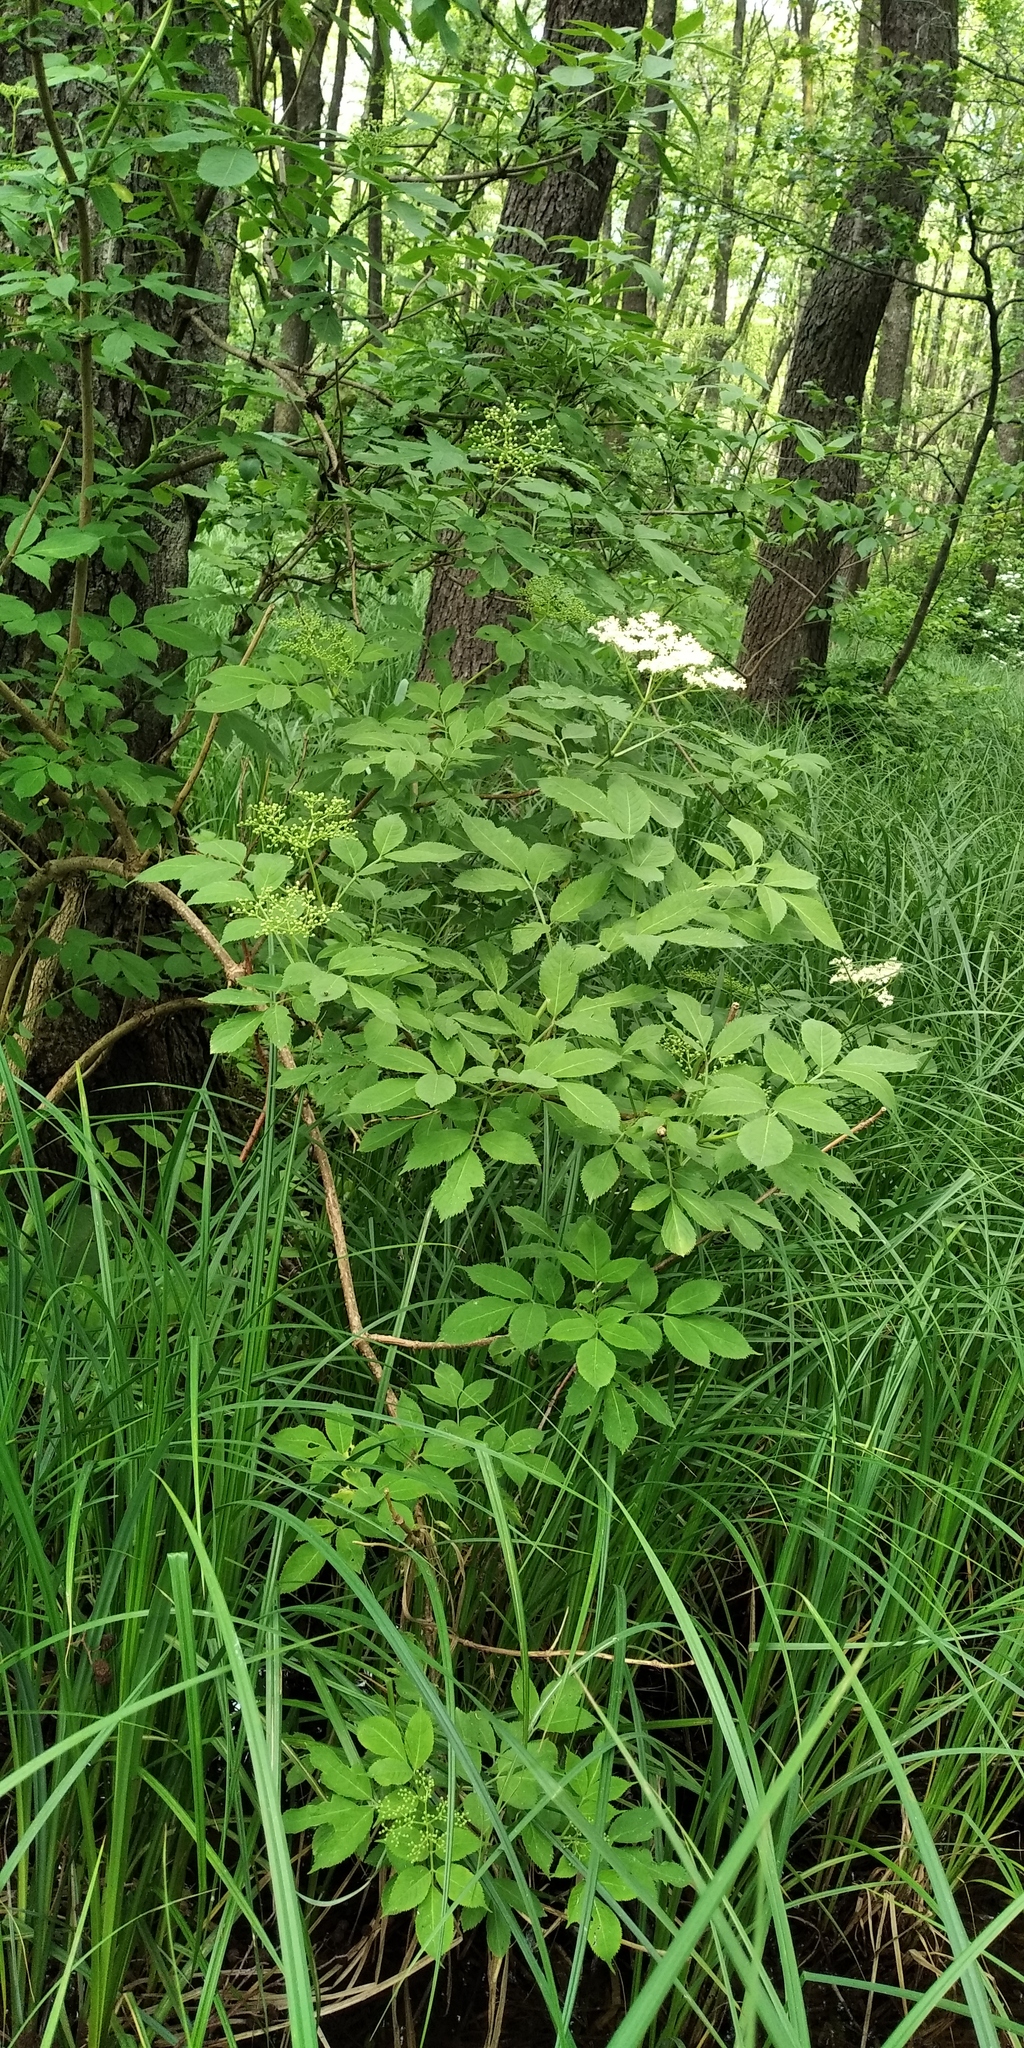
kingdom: Plantae
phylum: Tracheophyta
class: Magnoliopsida
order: Dipsacales
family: Viburnaceae
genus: Sambucus
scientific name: Sambucus nigra
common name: Elder
